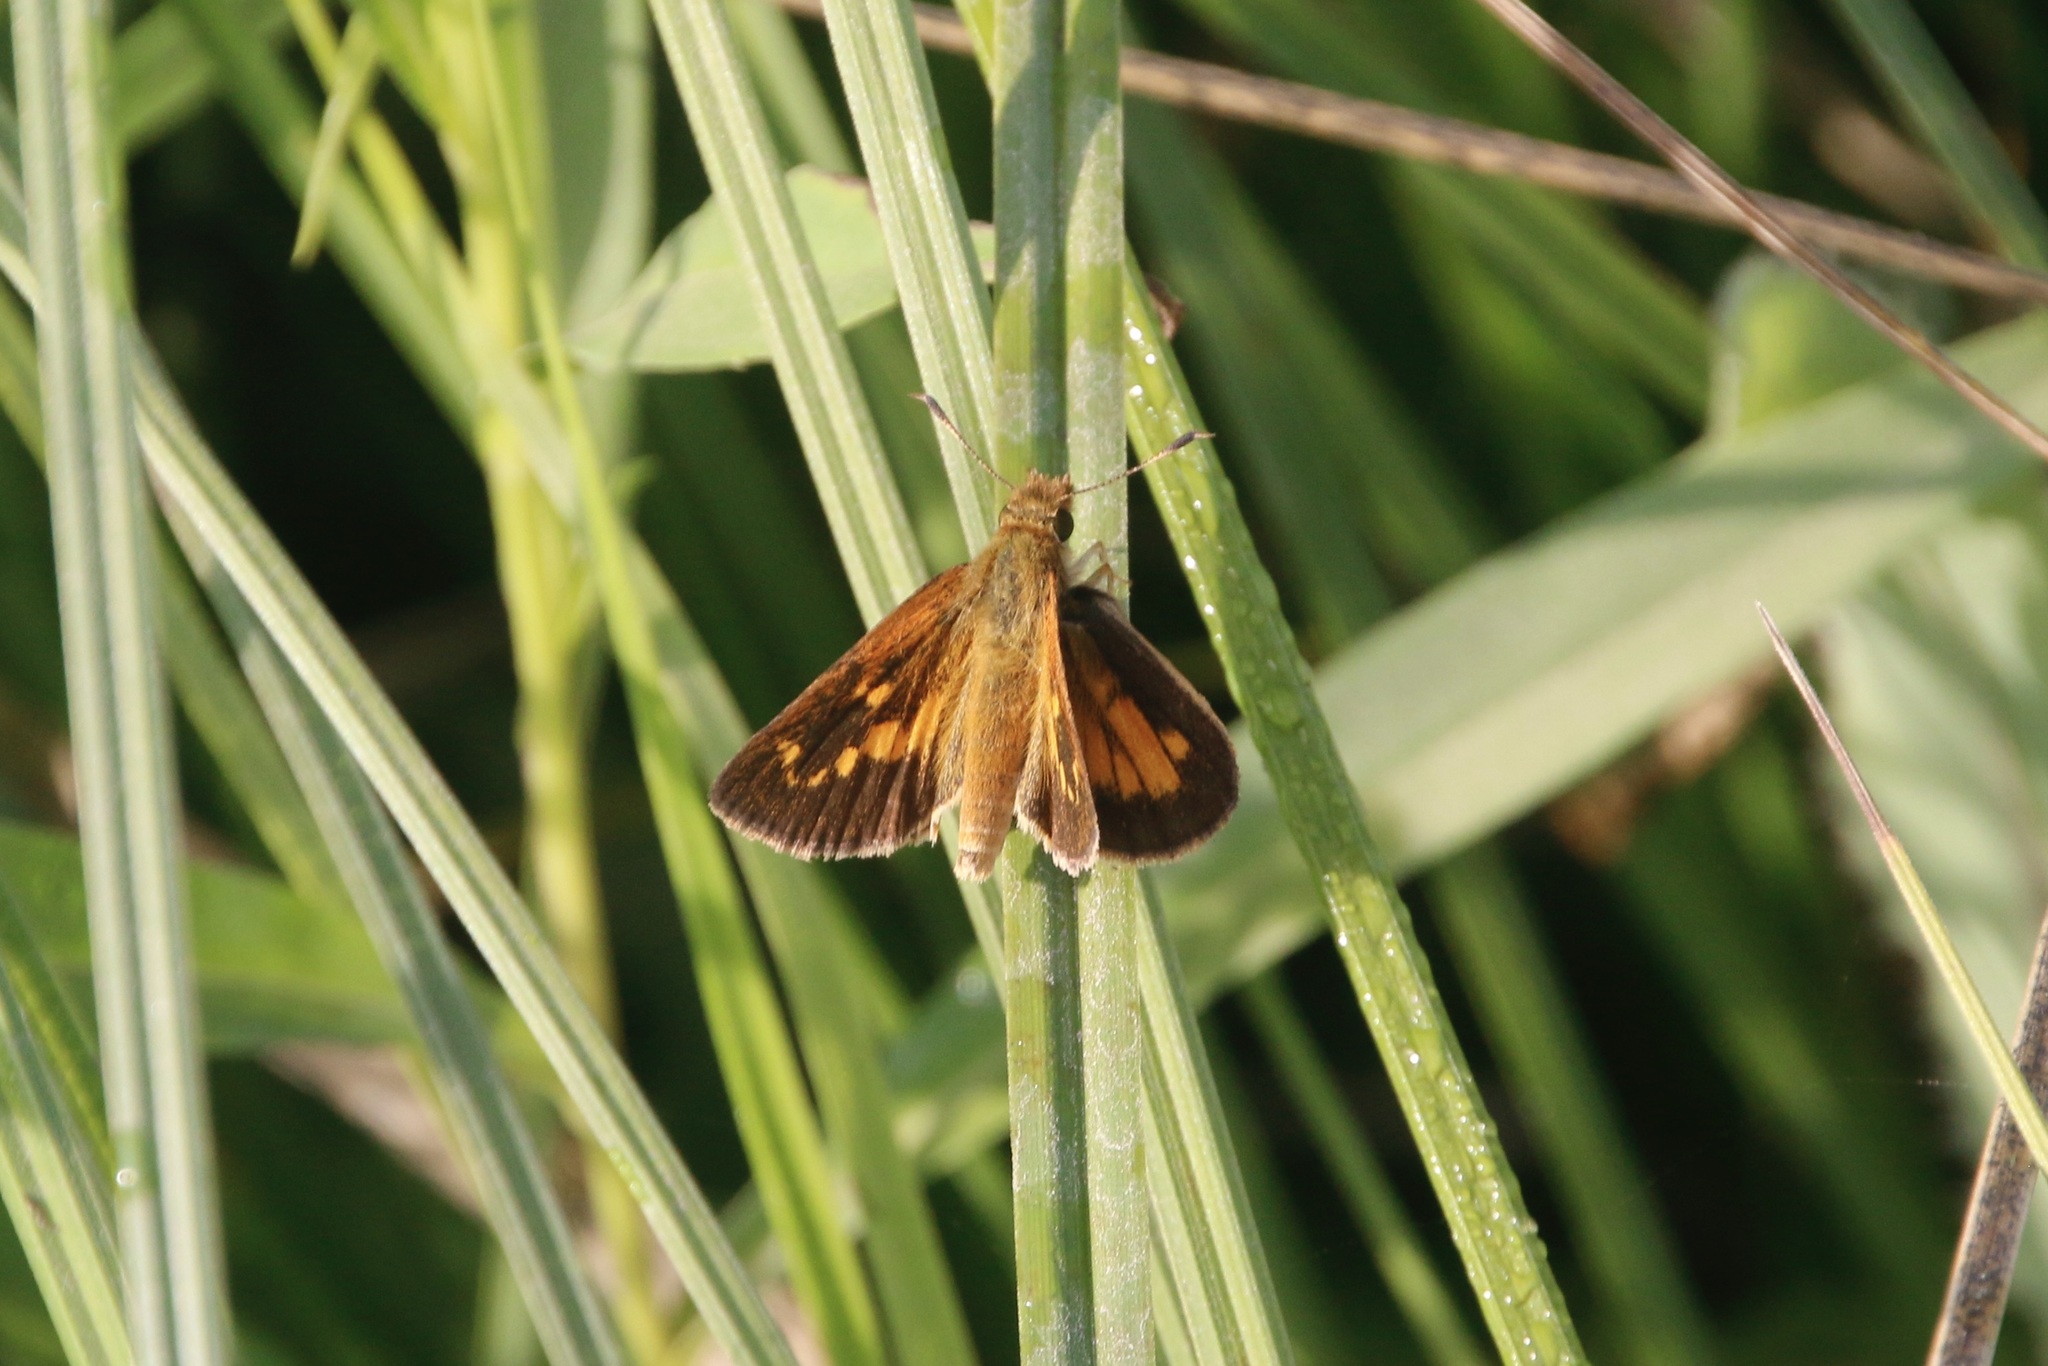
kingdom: Animalia
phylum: Arthropoda
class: Insecta
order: Lepidoptera
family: Hesperiidae
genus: Poanes
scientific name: Poanes viator
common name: Broad-winged skipper
